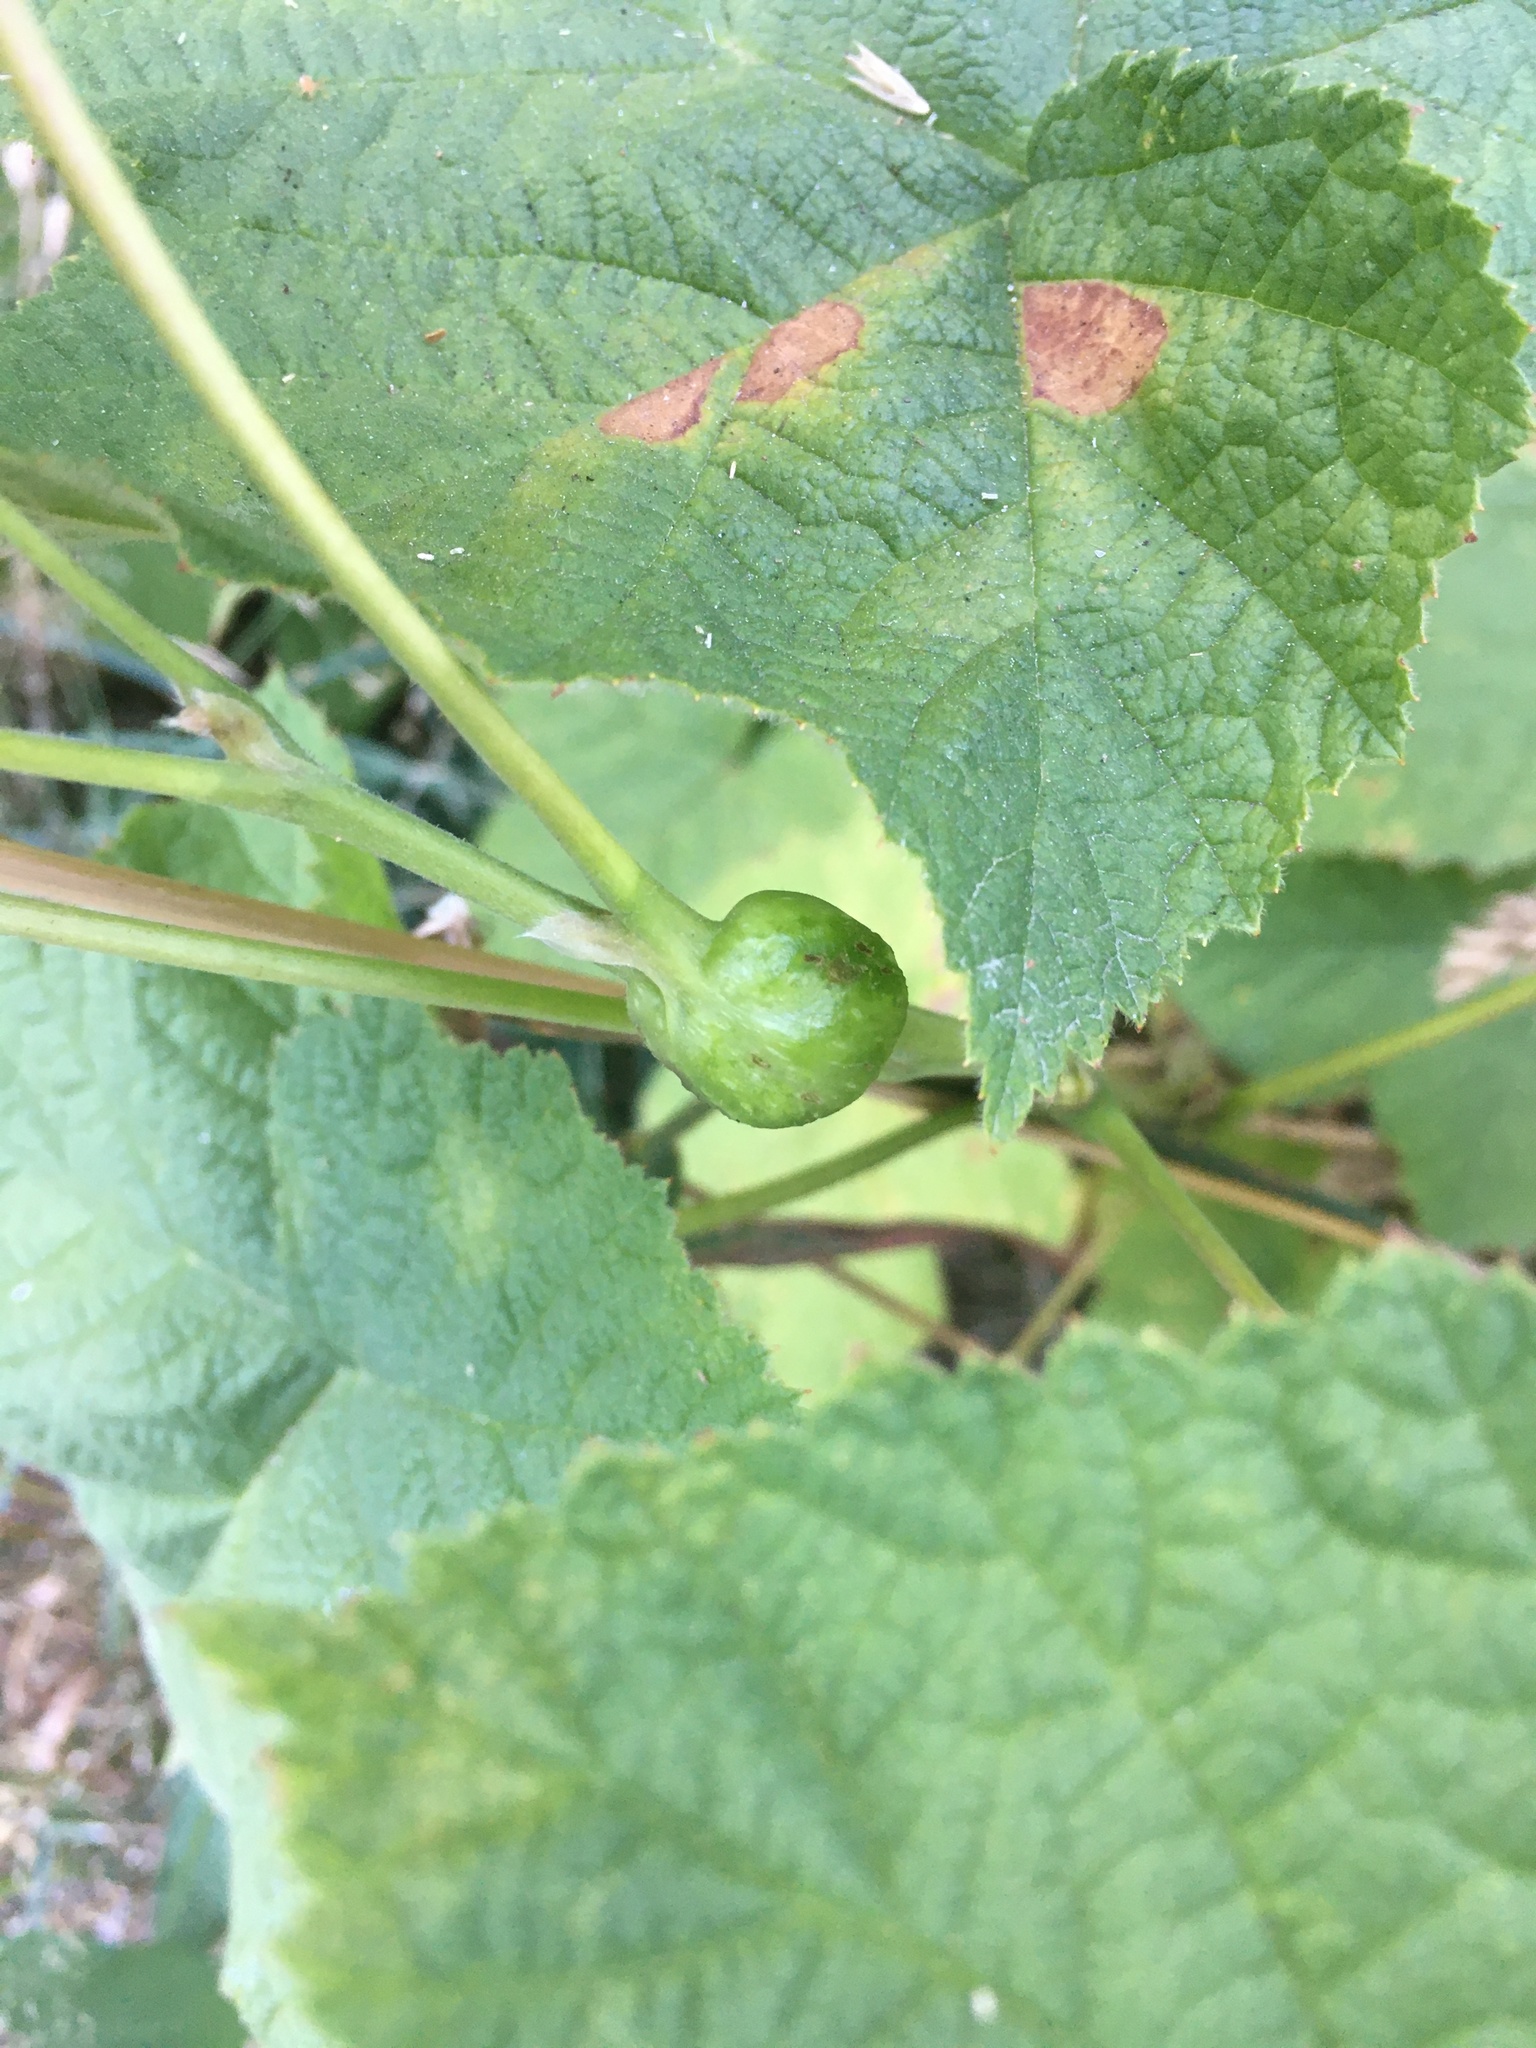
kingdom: Animalia
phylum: Arthropoda
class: Insecta
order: Hymenoptera
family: Cynipidae
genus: Diastrophus
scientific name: Diastrophus
